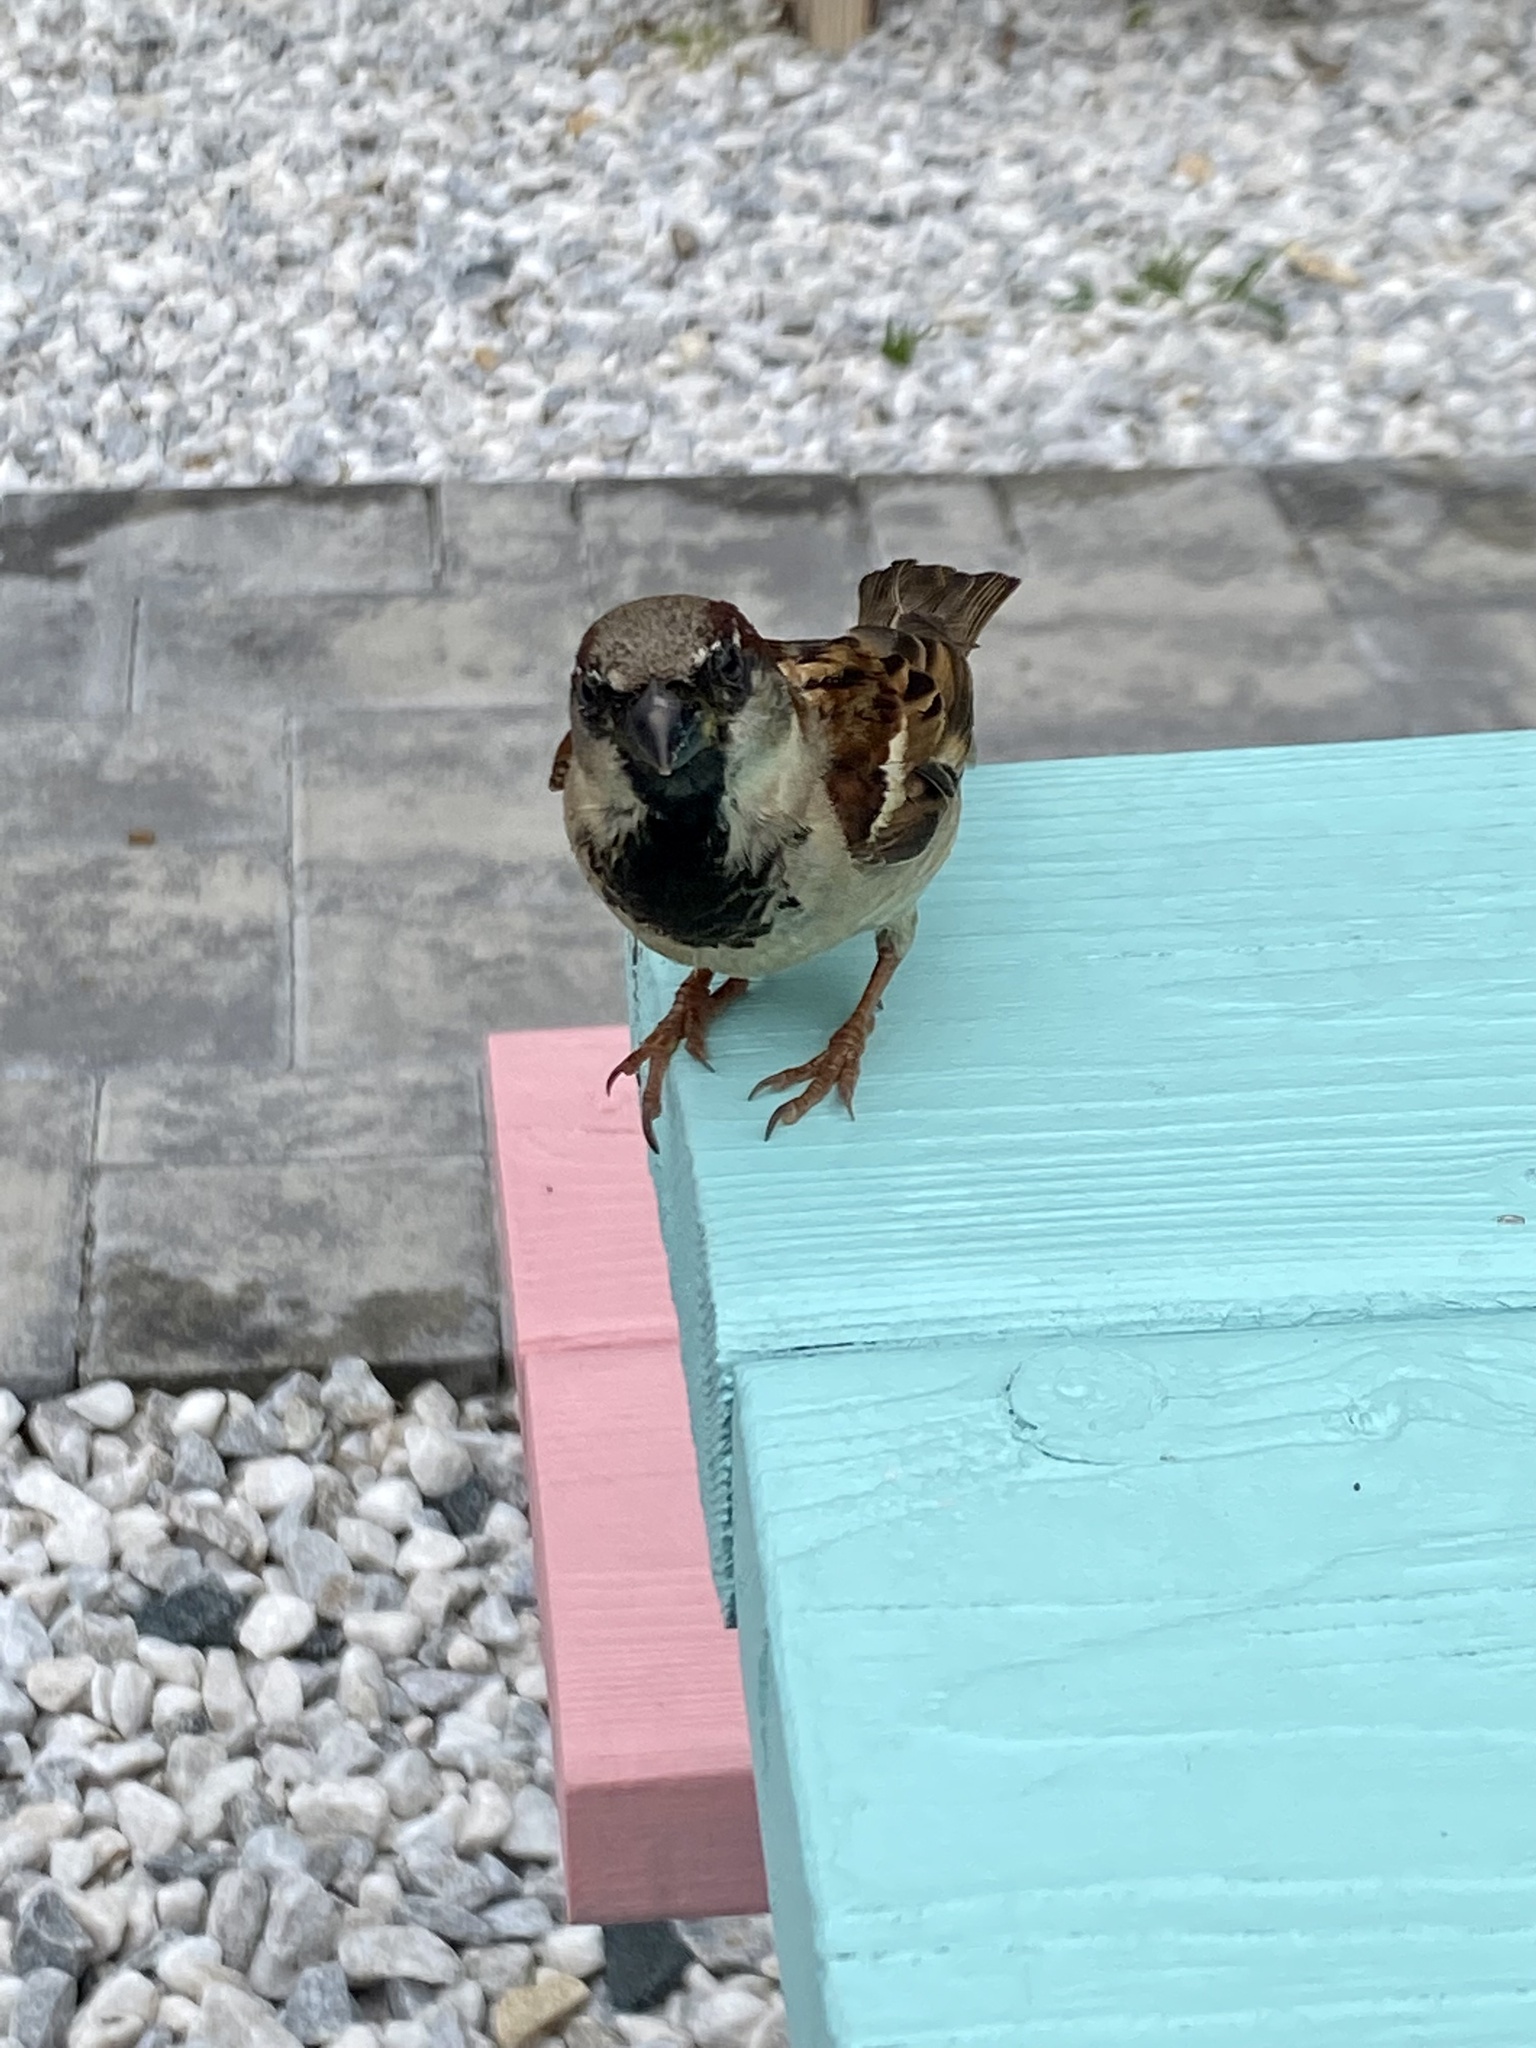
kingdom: Animalia
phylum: Chordata
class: Aves
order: Passeriformes
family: Passeridae
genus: Passer
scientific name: Passer domesticus
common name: House sparrow
